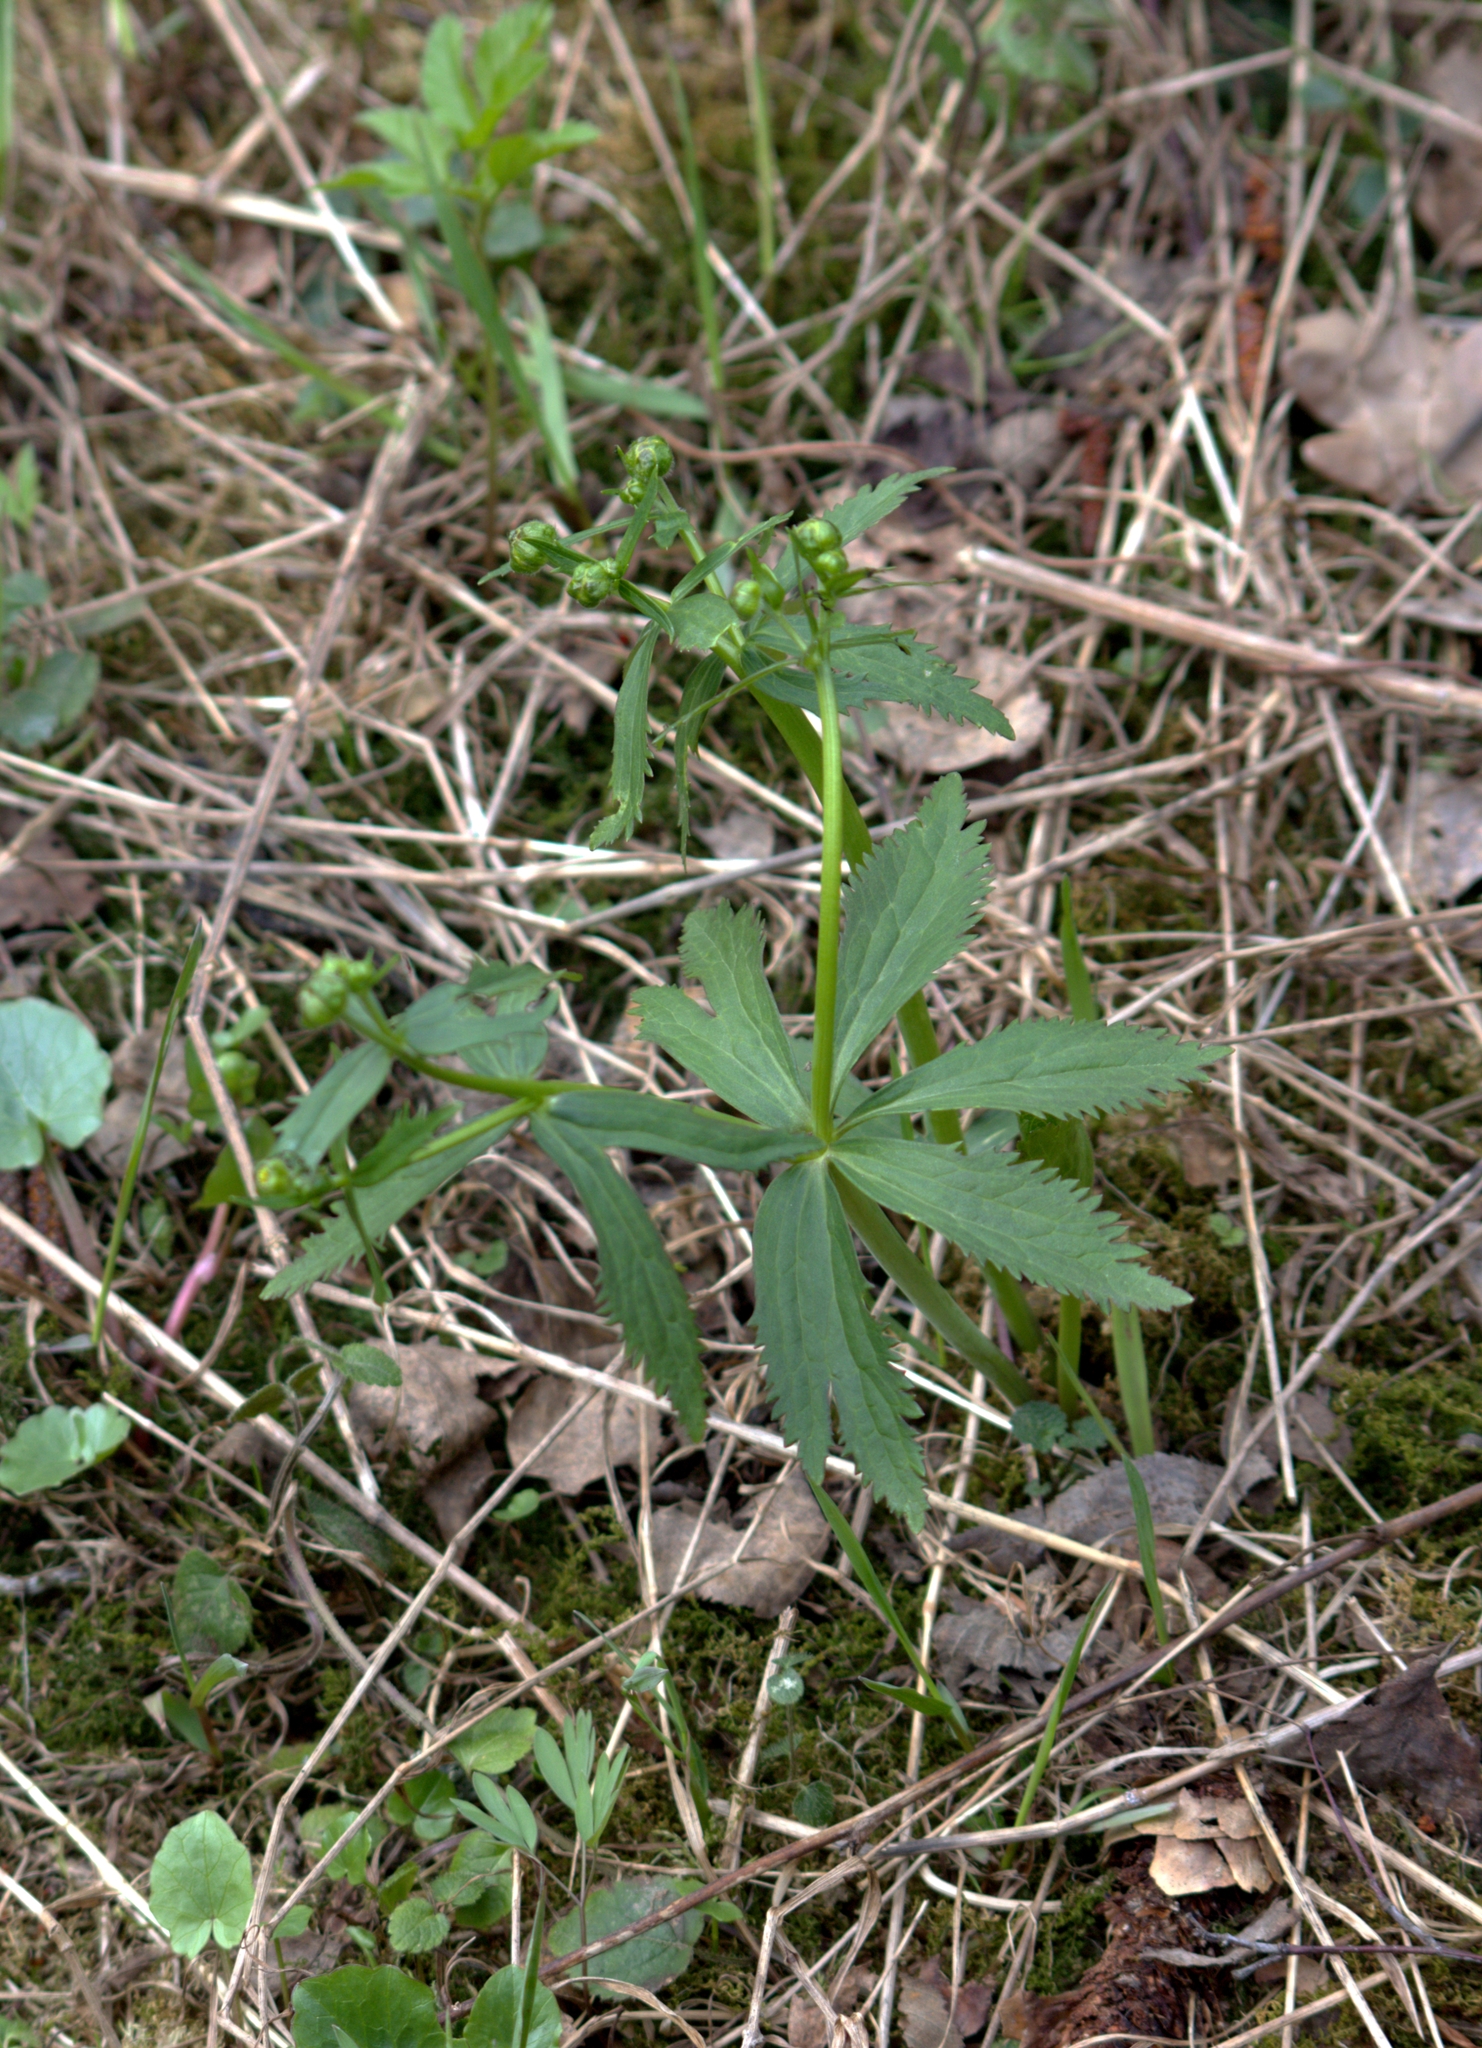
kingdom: Plantae
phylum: Tracheophyta
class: Magnoliopsida
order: Ranunculales
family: Ranunculaceae
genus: Ranunculus
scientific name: Ranunculus cassubicus
